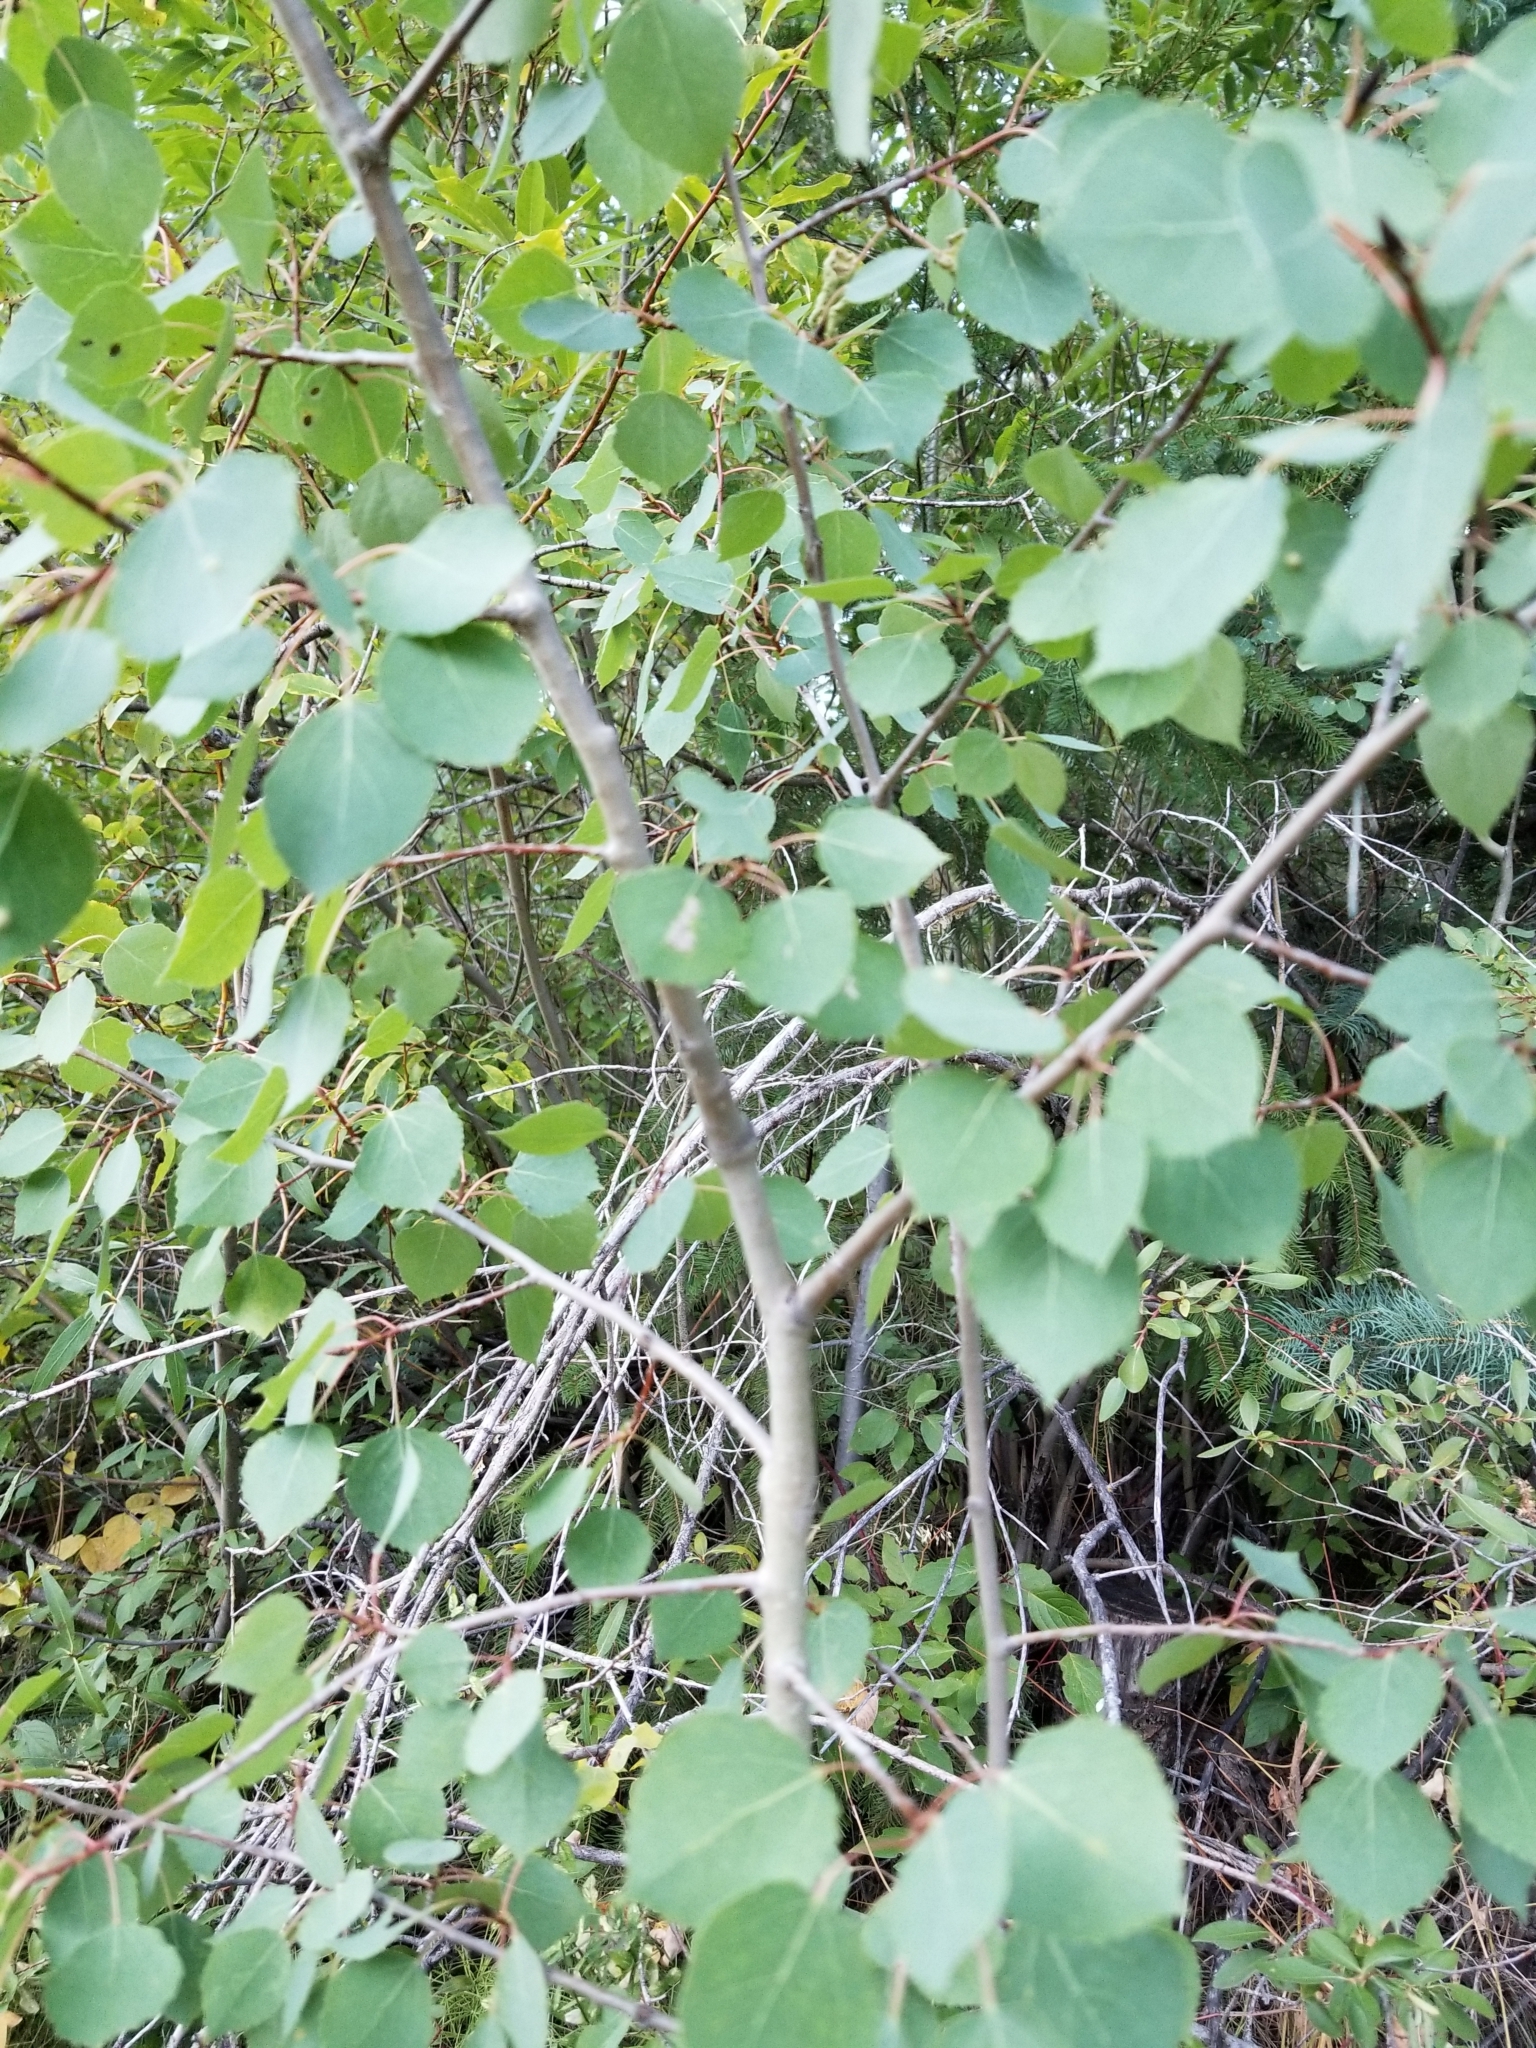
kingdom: Plantae
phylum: Tracheophyta
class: Magnoliopsida
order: Malpighiales
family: Salicaceae
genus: Populus
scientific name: Populus tremuloides
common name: Quaking aspen
